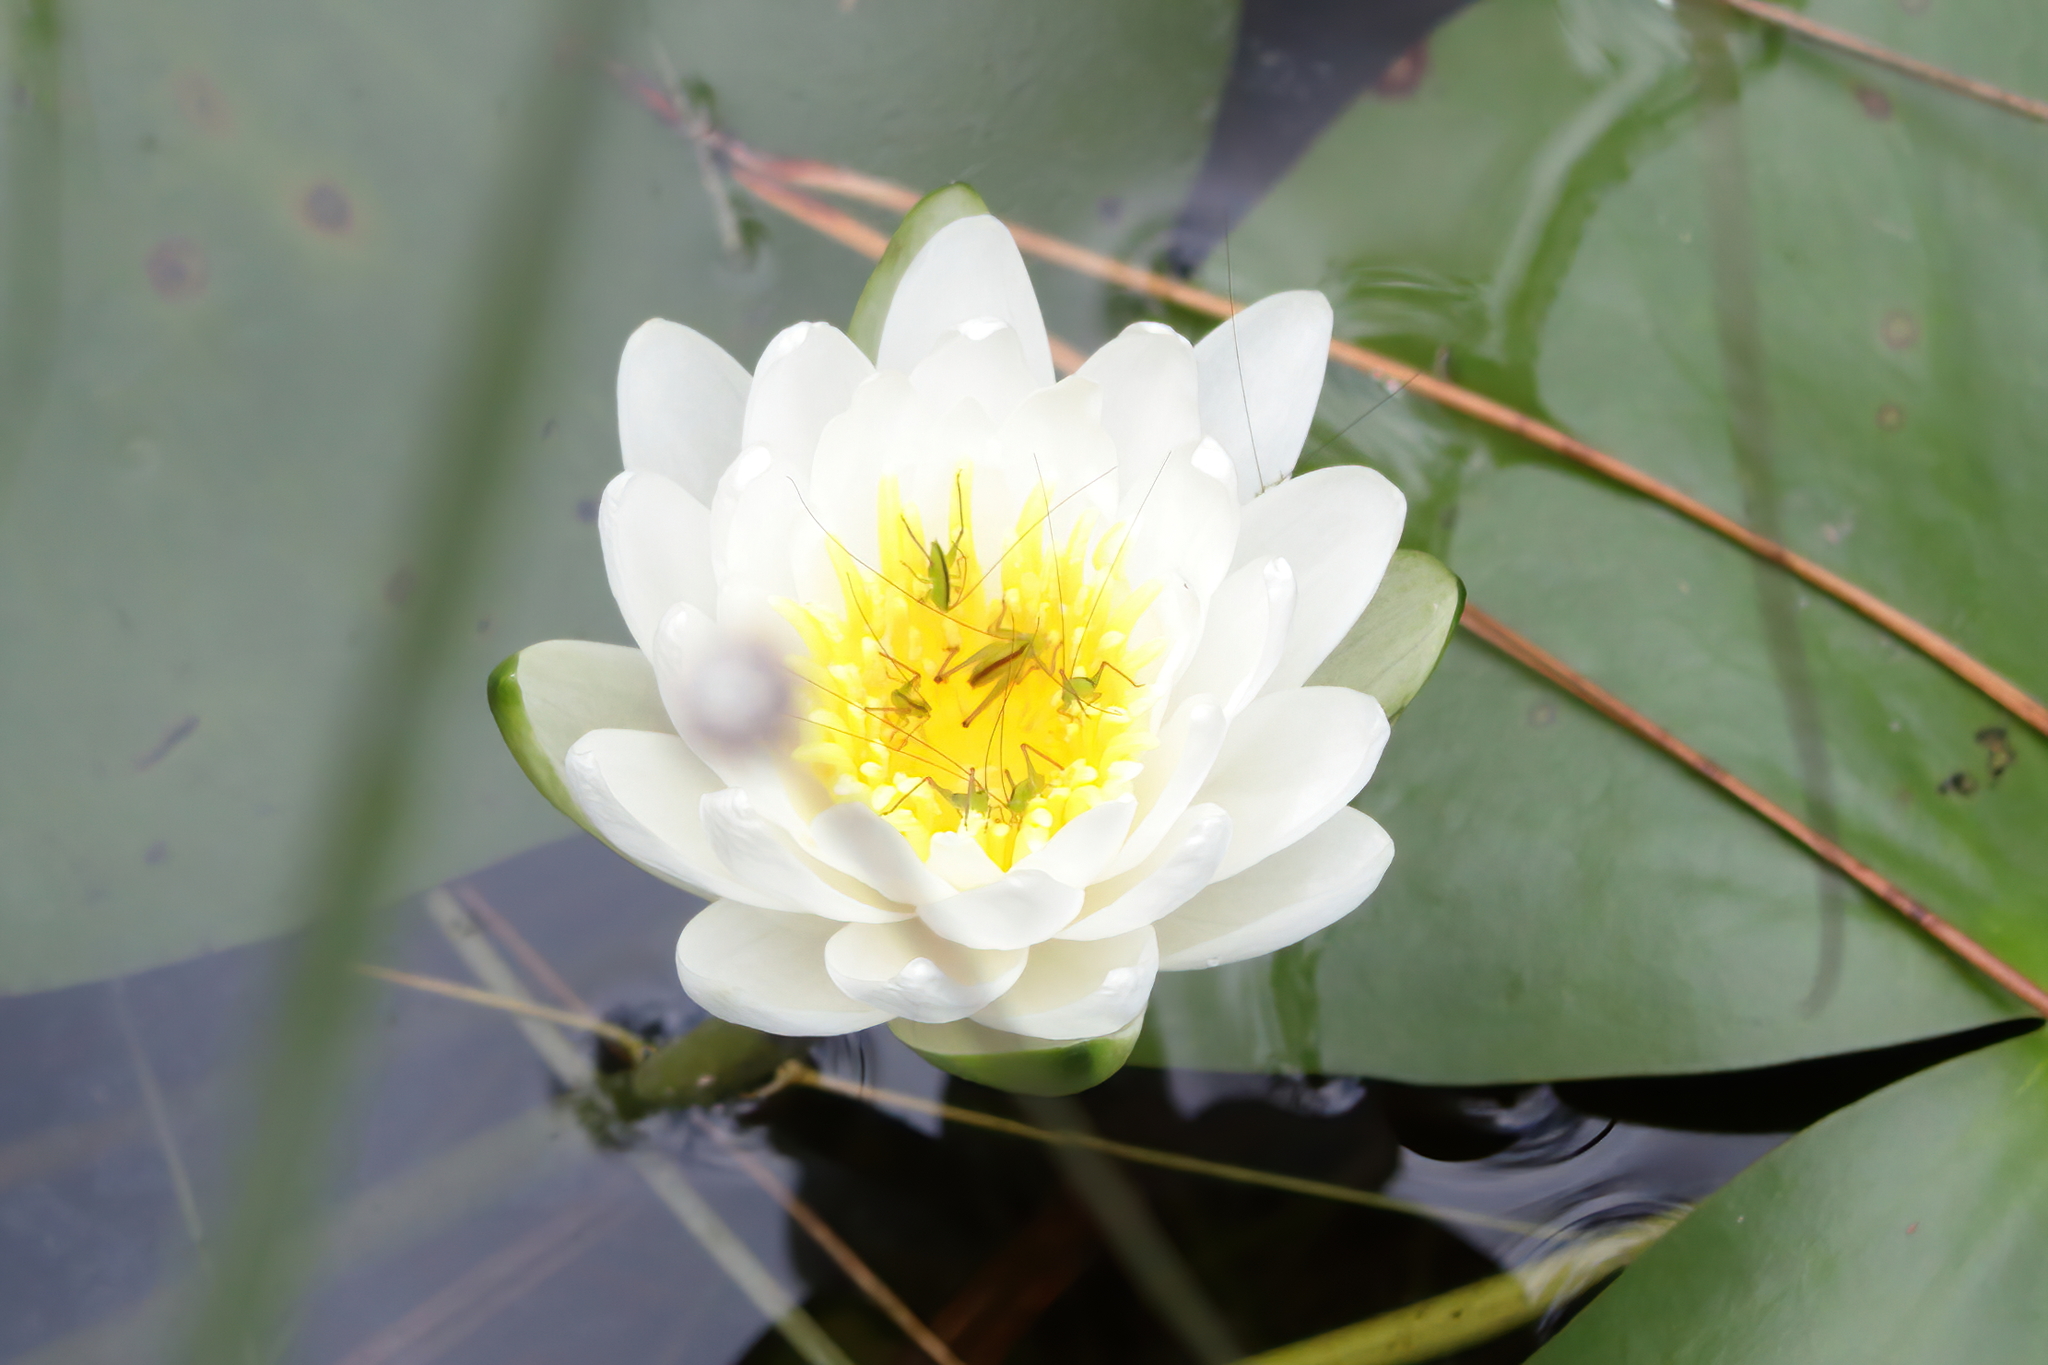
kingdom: Plantae
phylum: Tracheophyta
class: Magnoliopsida
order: Nymphaeales
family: Nymphaeaceae
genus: Nymphaea
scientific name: Nymphaea odorata
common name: Fragrant water-lily
